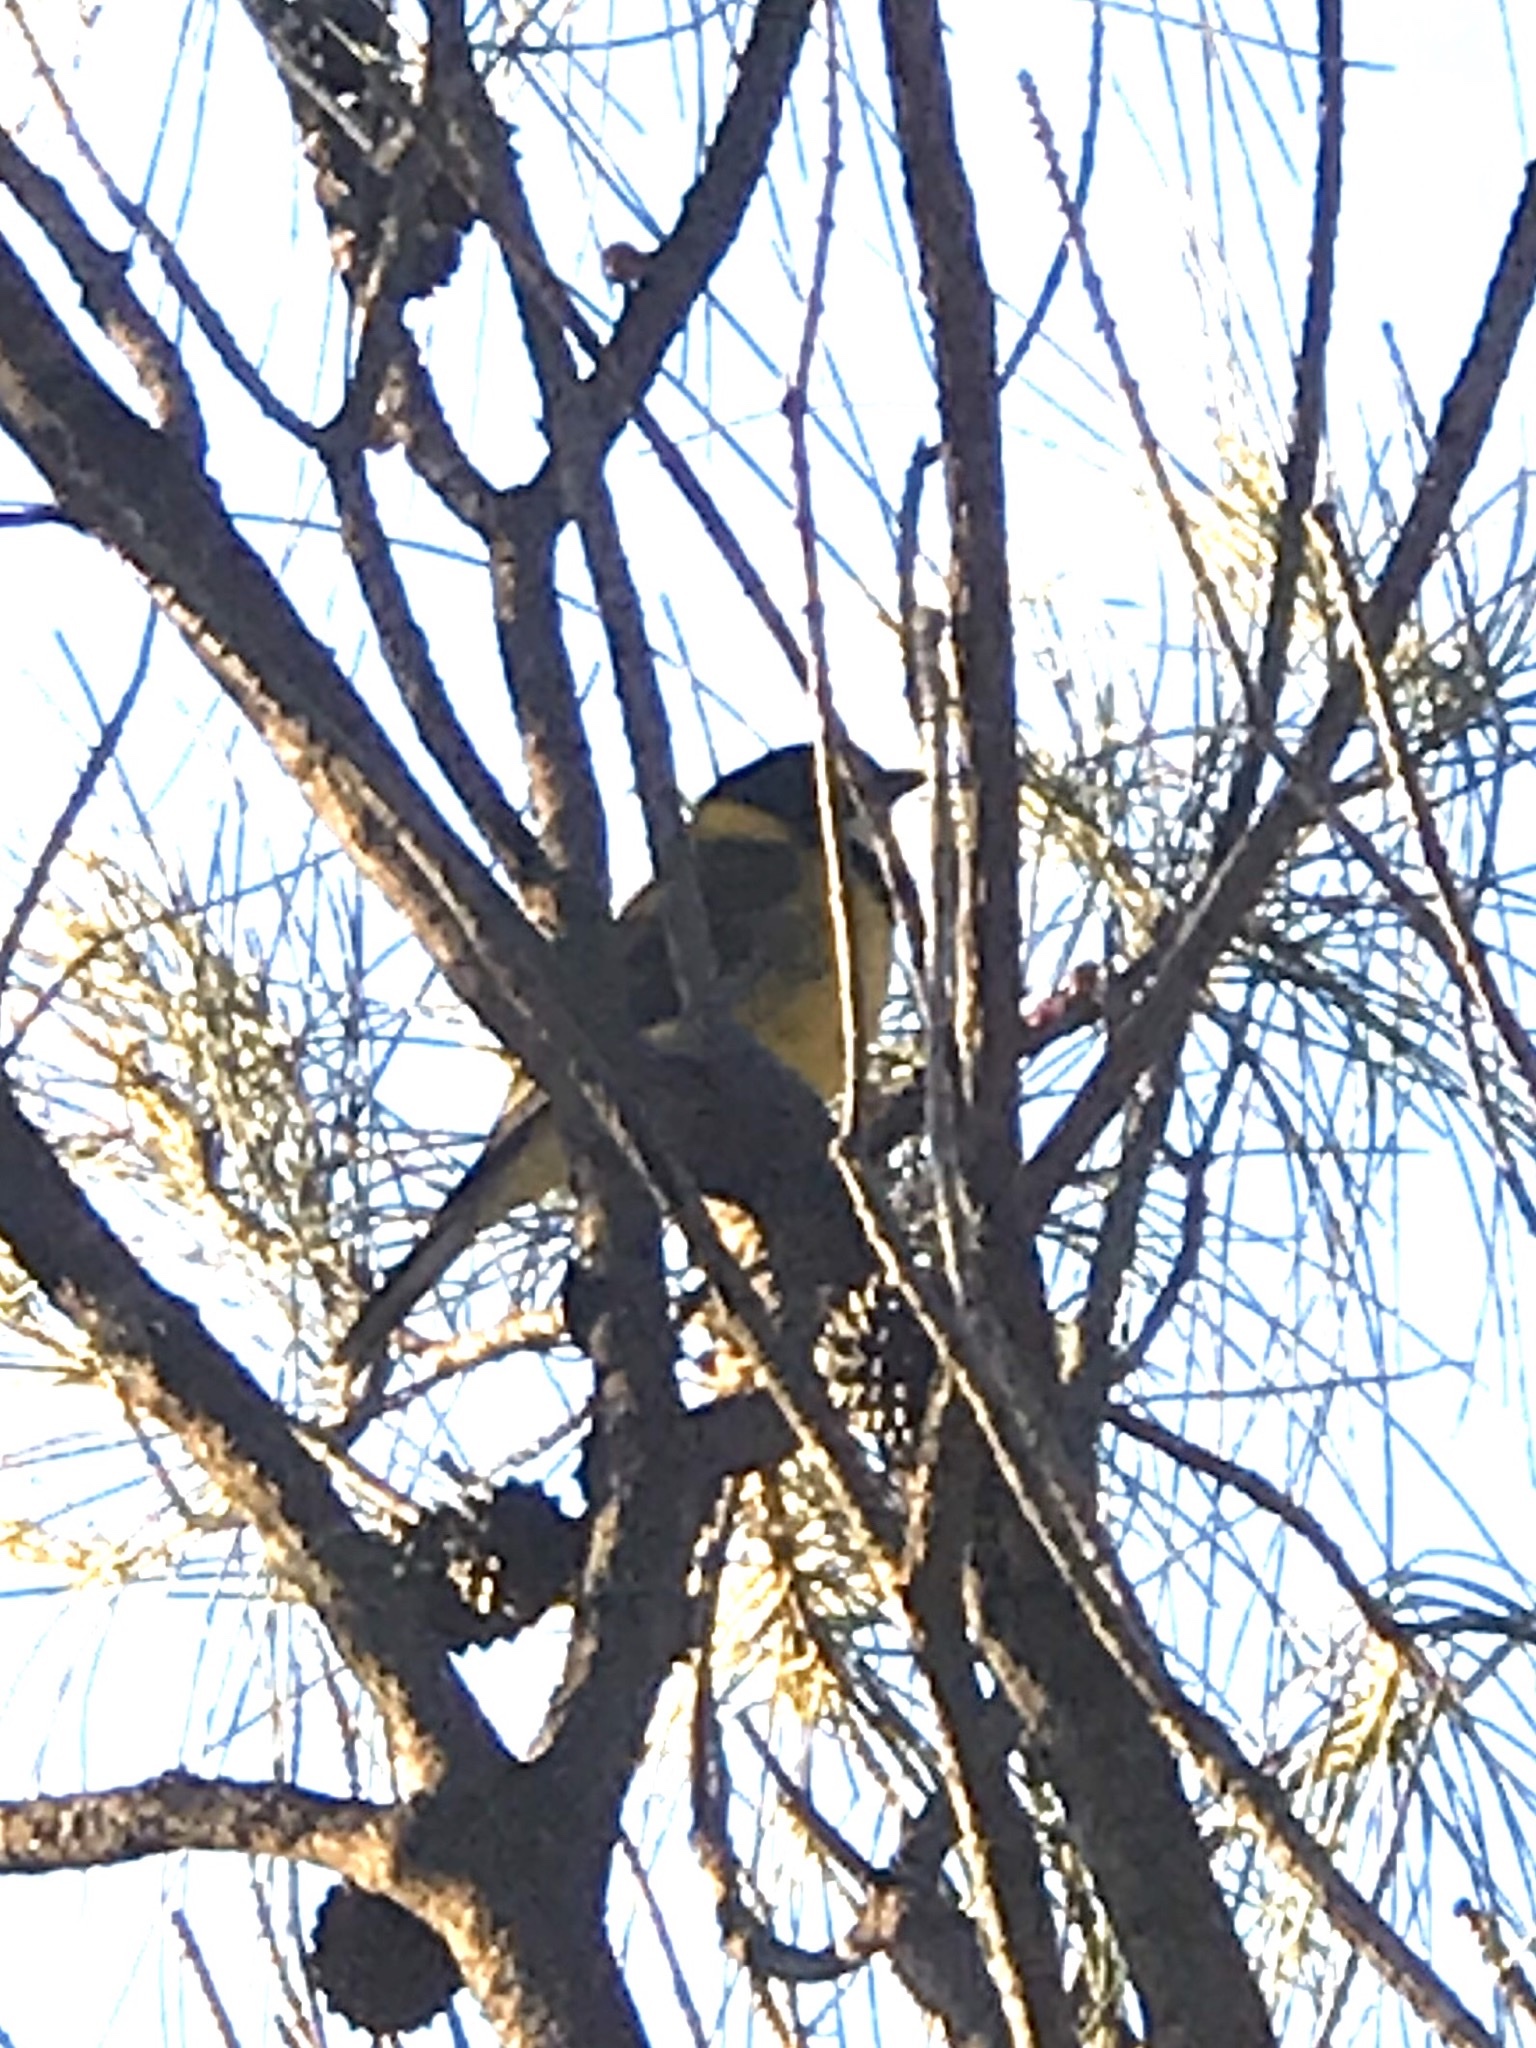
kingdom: Animalia
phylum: Chordata
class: Aves
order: Passeriformes
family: Pachycephalidae
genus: Pachycephala
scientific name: Pachycephala fuliginosa
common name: Western whistler
